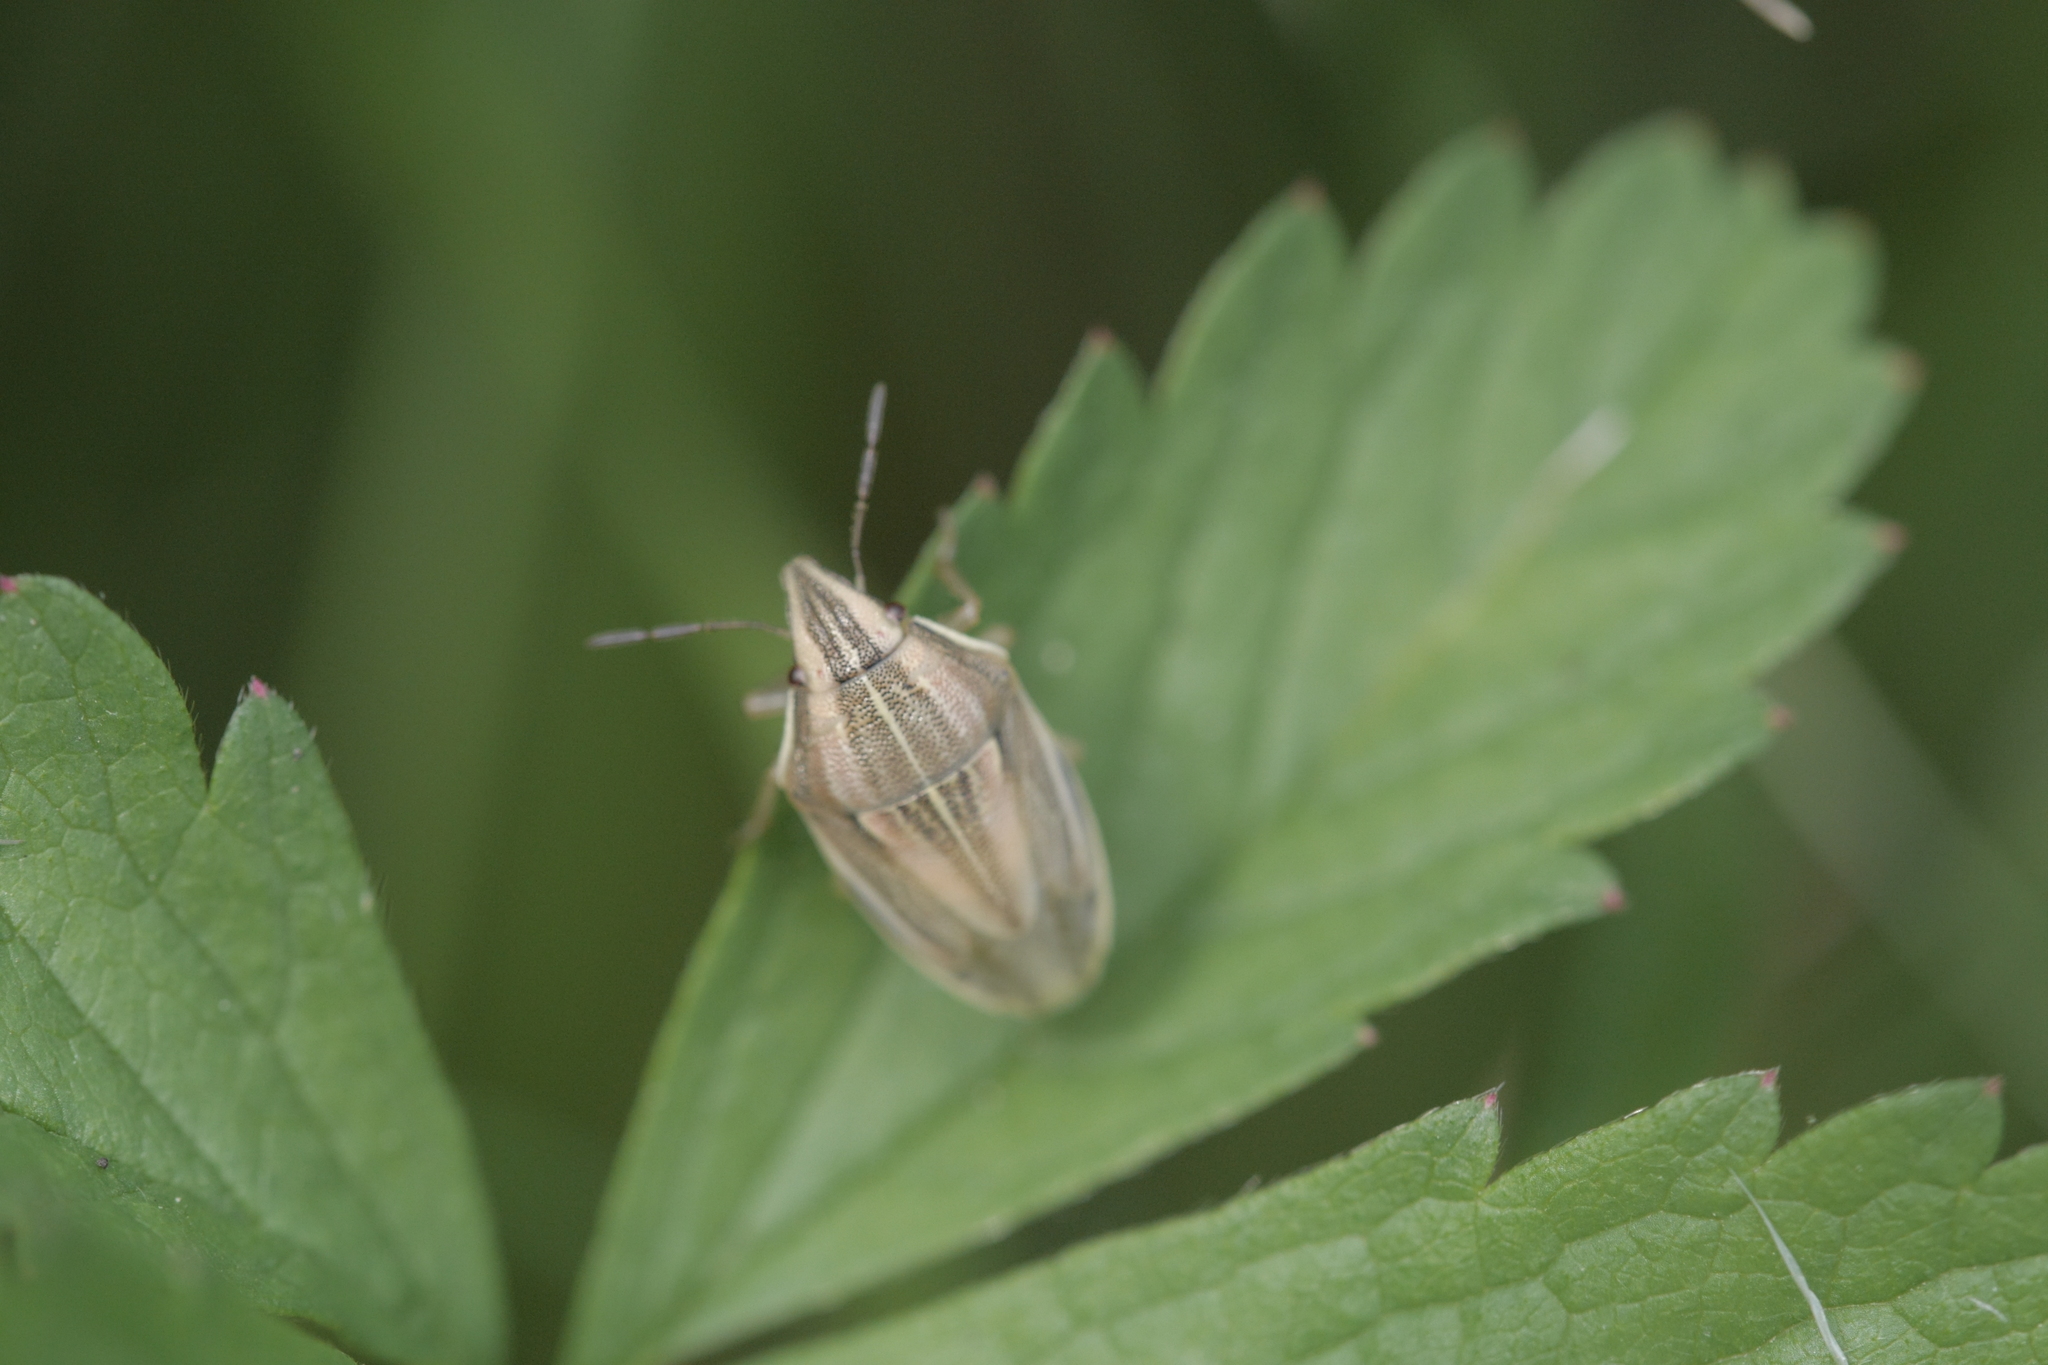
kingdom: Animalia
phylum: Arthropoda
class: Insecta
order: Hemiptera
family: Pentatomidae
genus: Aelia
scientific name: Aelia acuminata
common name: Bishop's mitre
